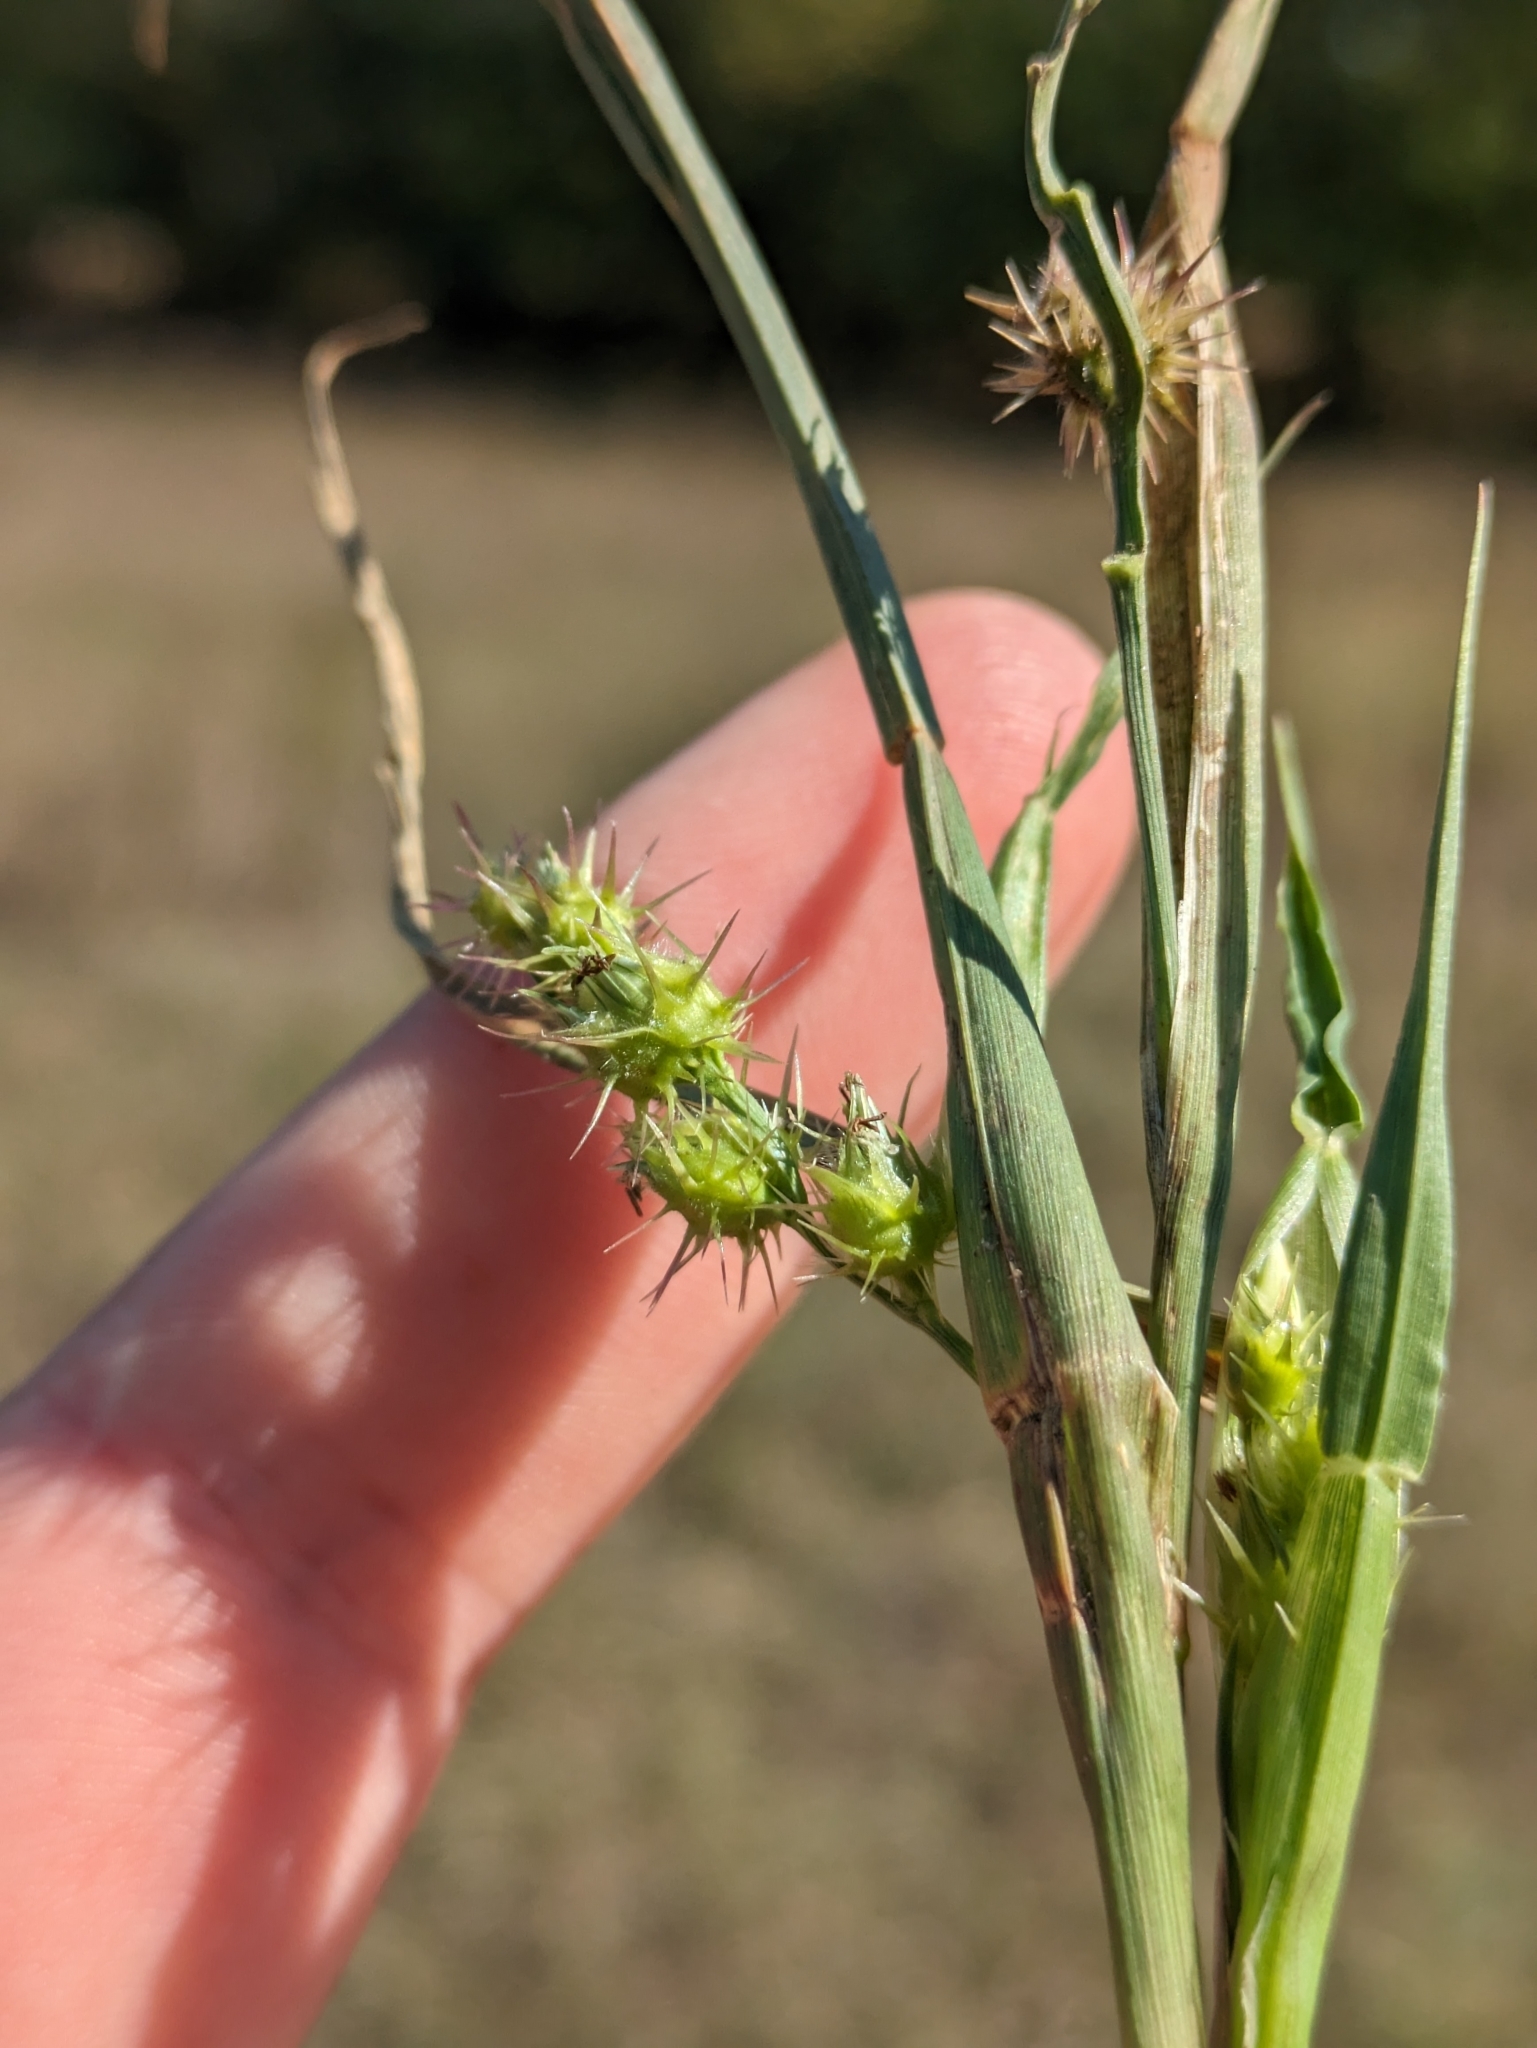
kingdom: Plantae
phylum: Tracheophyta
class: Liliopsida
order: Poales
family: Poaceae
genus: Cenchrus
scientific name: Cenchrus spinifex
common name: Coast sandbur
